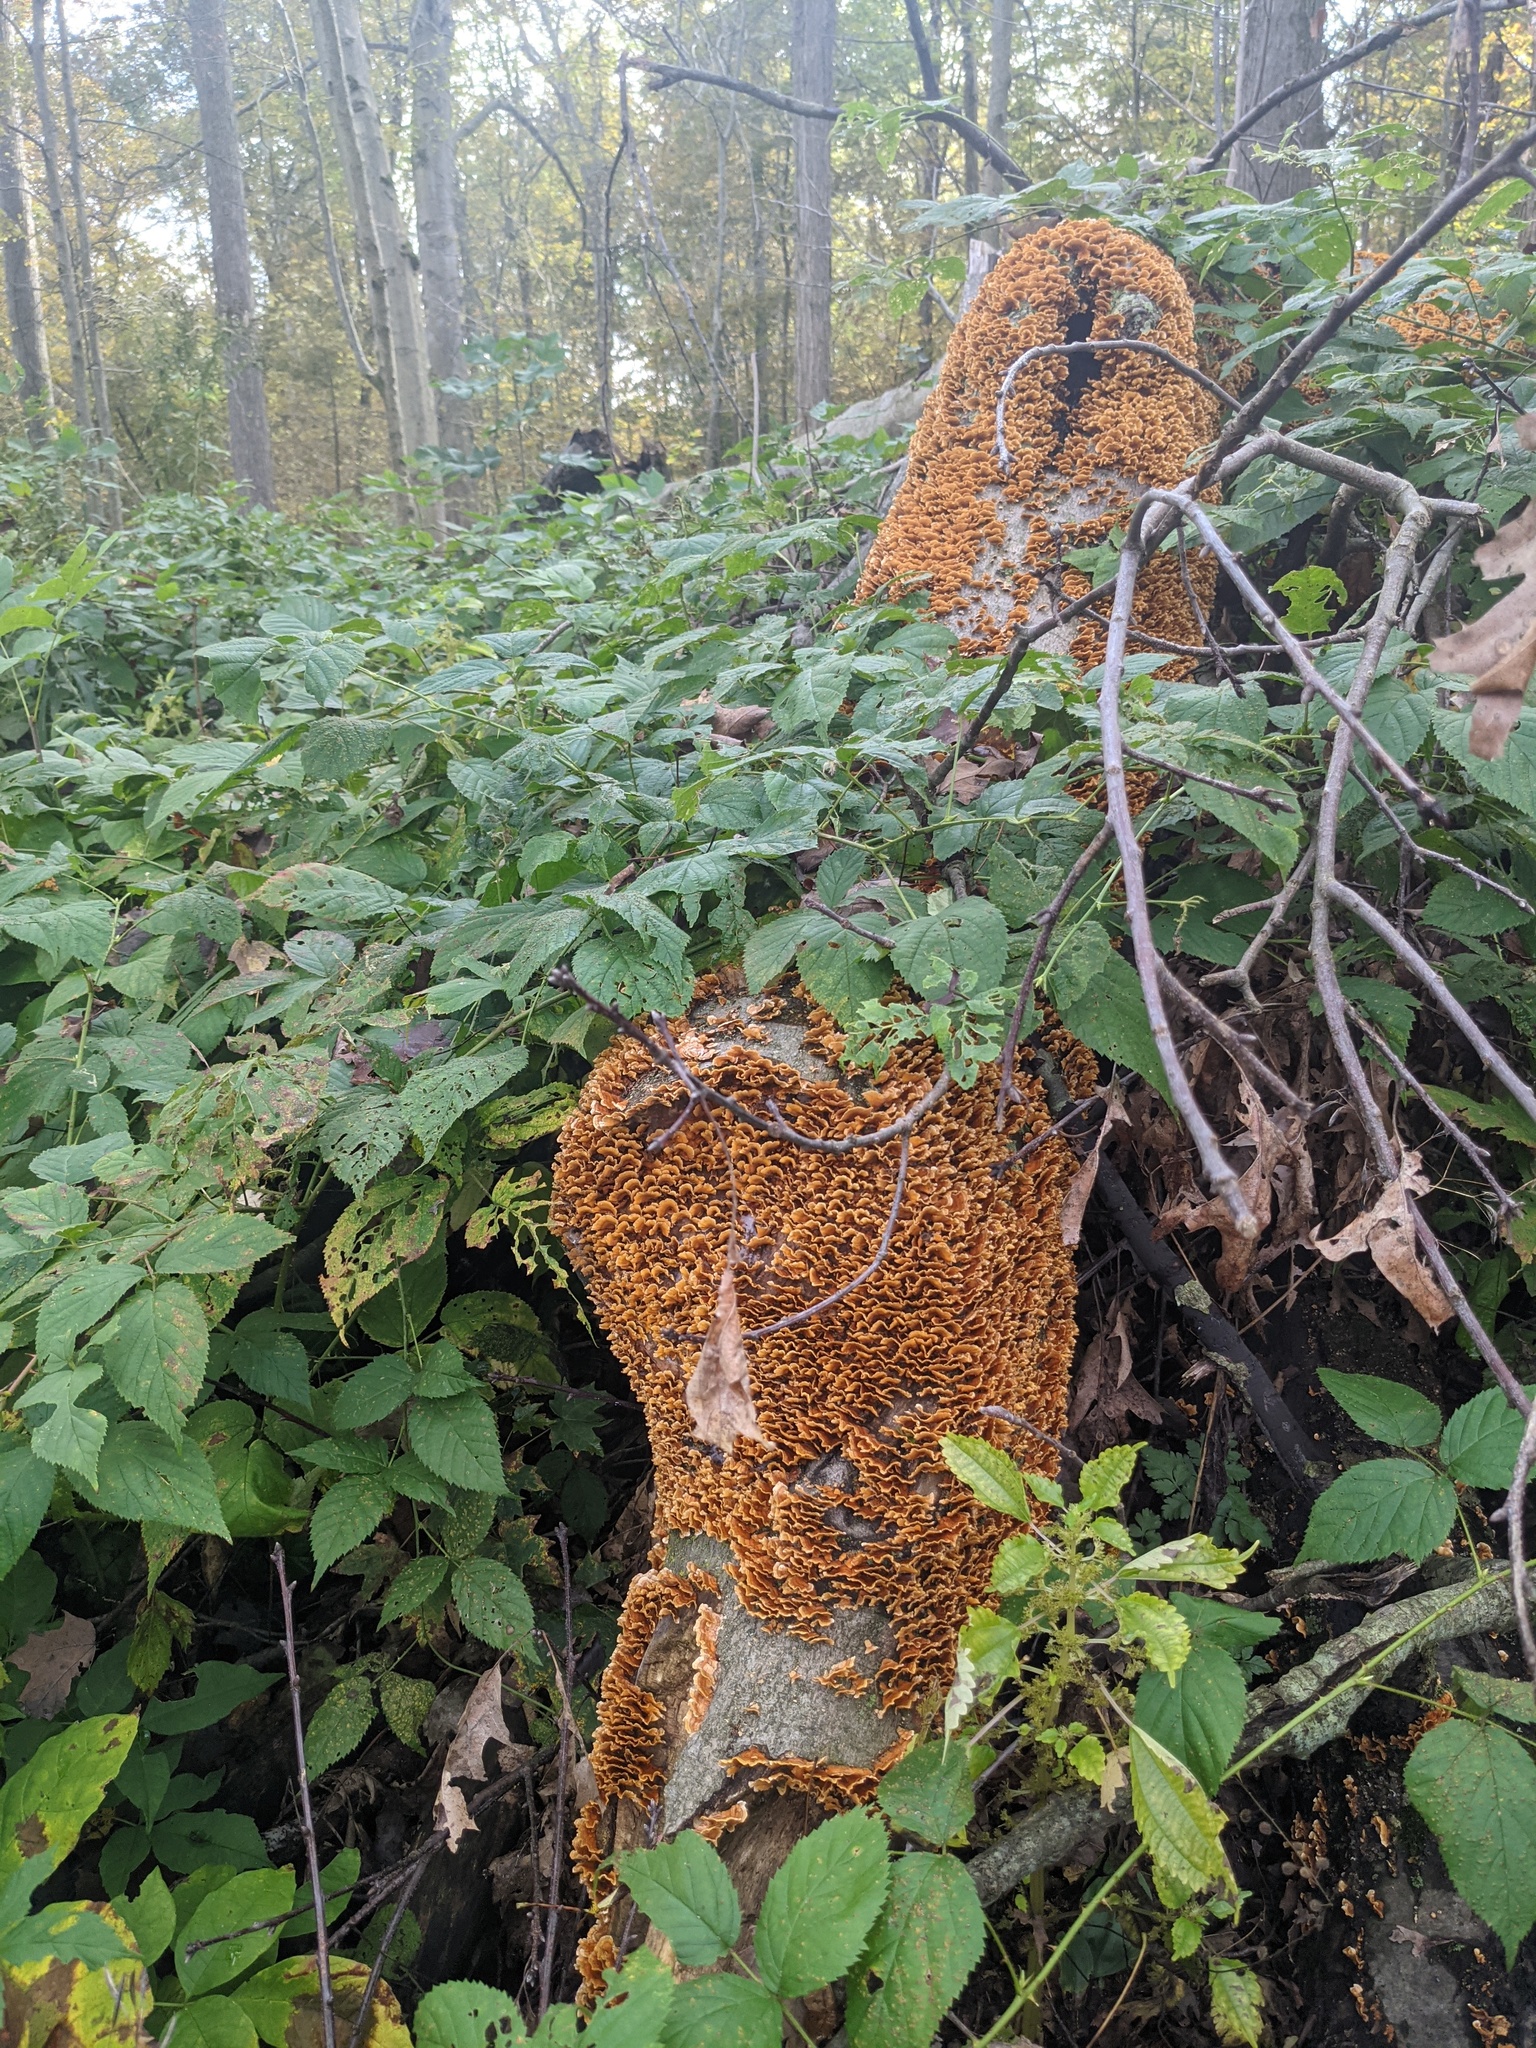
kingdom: Fungi
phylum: Basidiomycota
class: Agaricomycetes
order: Russulales
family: Stereaceae
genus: Stereum
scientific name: Stereum complicatum
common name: Crowded parchment
